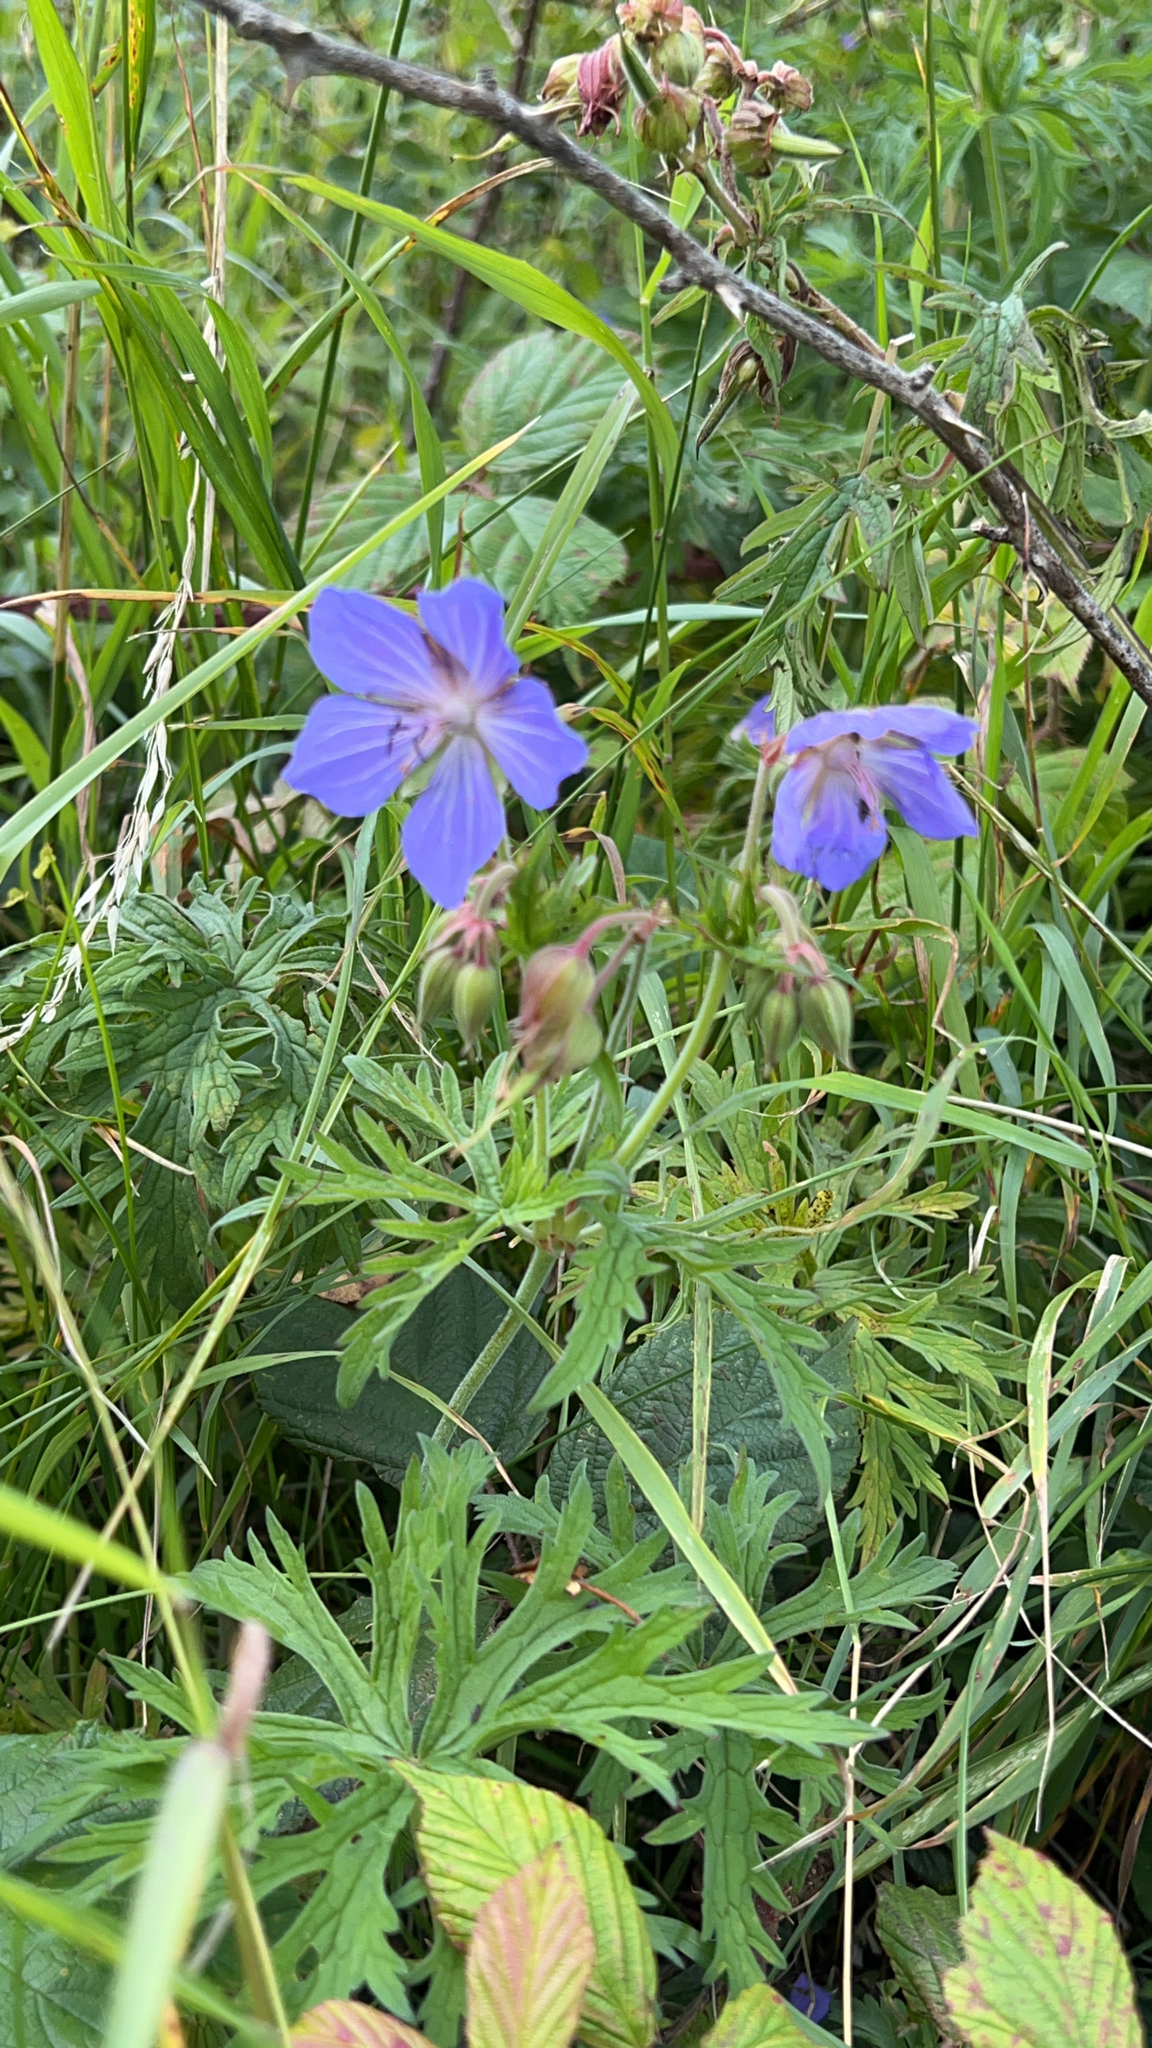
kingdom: Plantae
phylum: Tracheophyta
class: Magnoliopsida
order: Geraniales
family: Geraniaceae
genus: Geranium
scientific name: Geranium pratense
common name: Meadow crane's-bill
